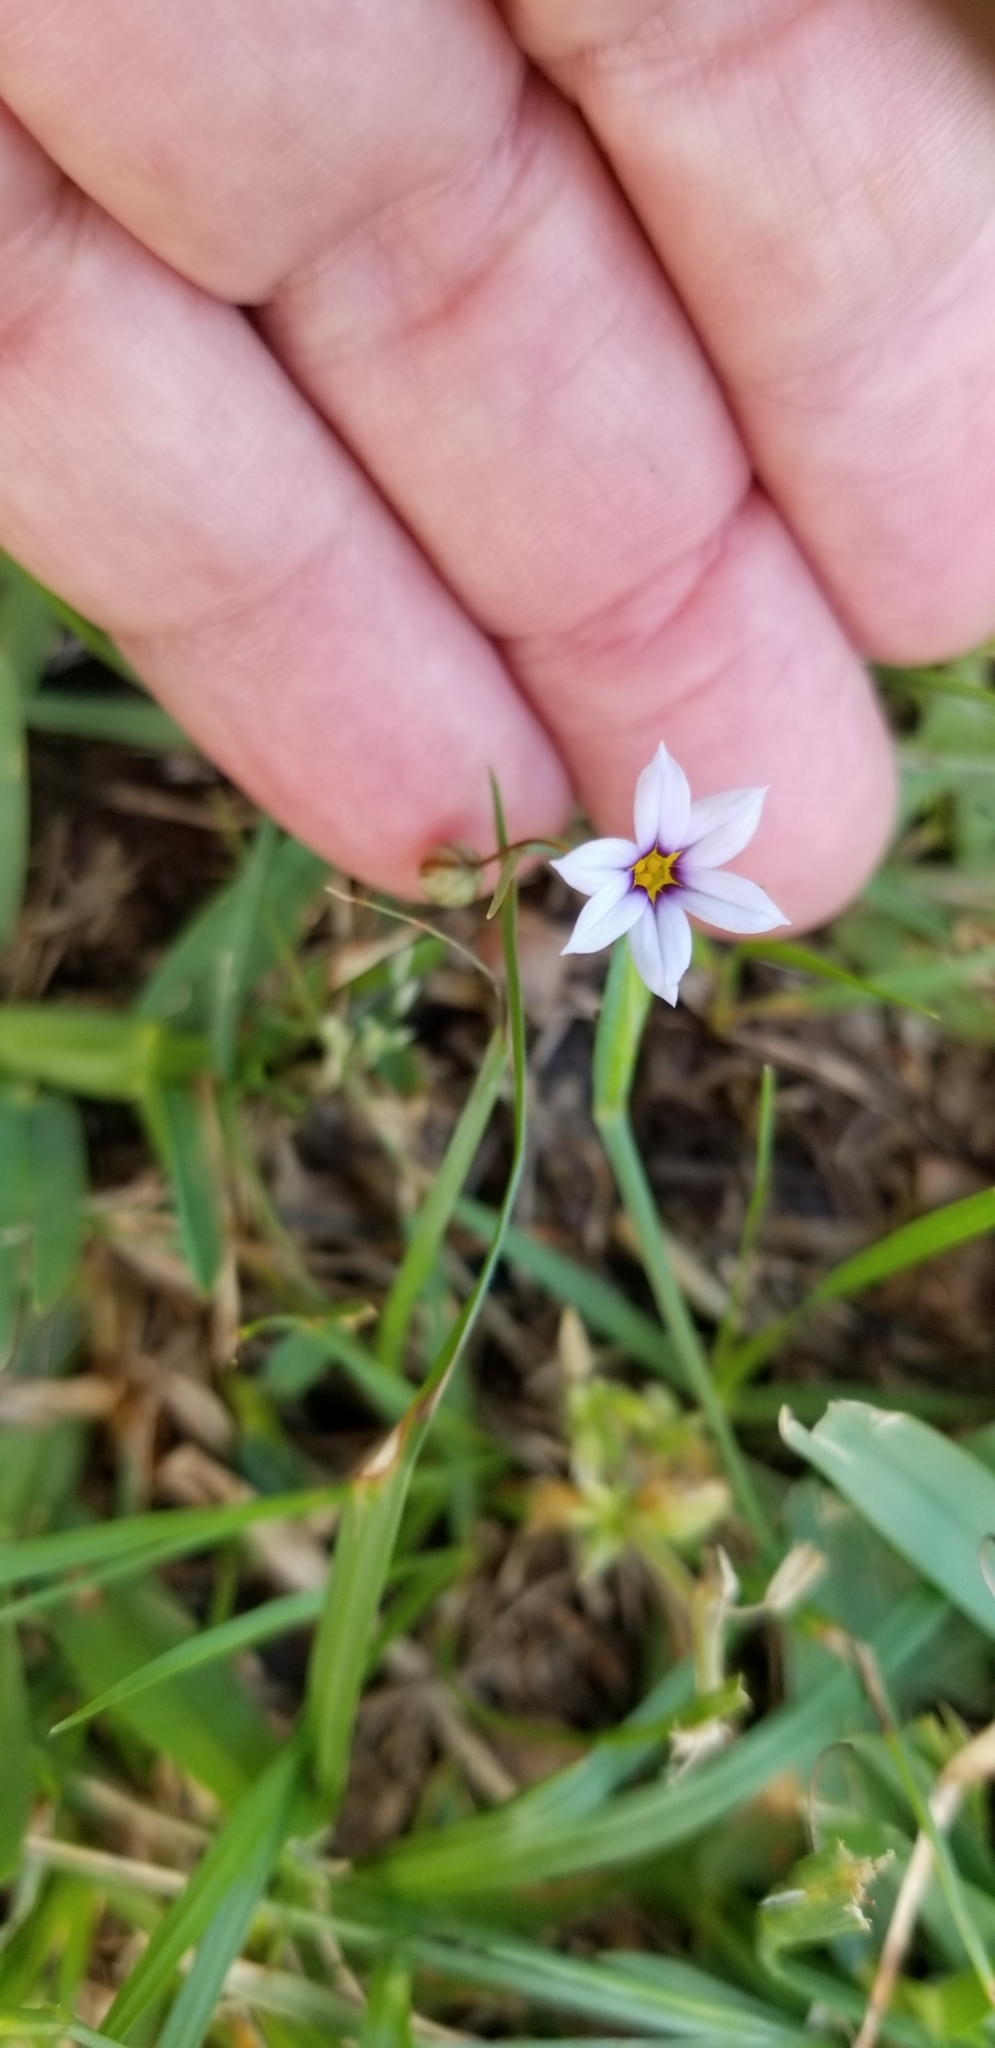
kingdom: Plantae
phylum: Tracheophyta
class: Liliopsida
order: Asparagales
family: Iridaceae
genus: Sisyrinchium
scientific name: Sisyrinchium micranthum
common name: Bermuda pigroot
